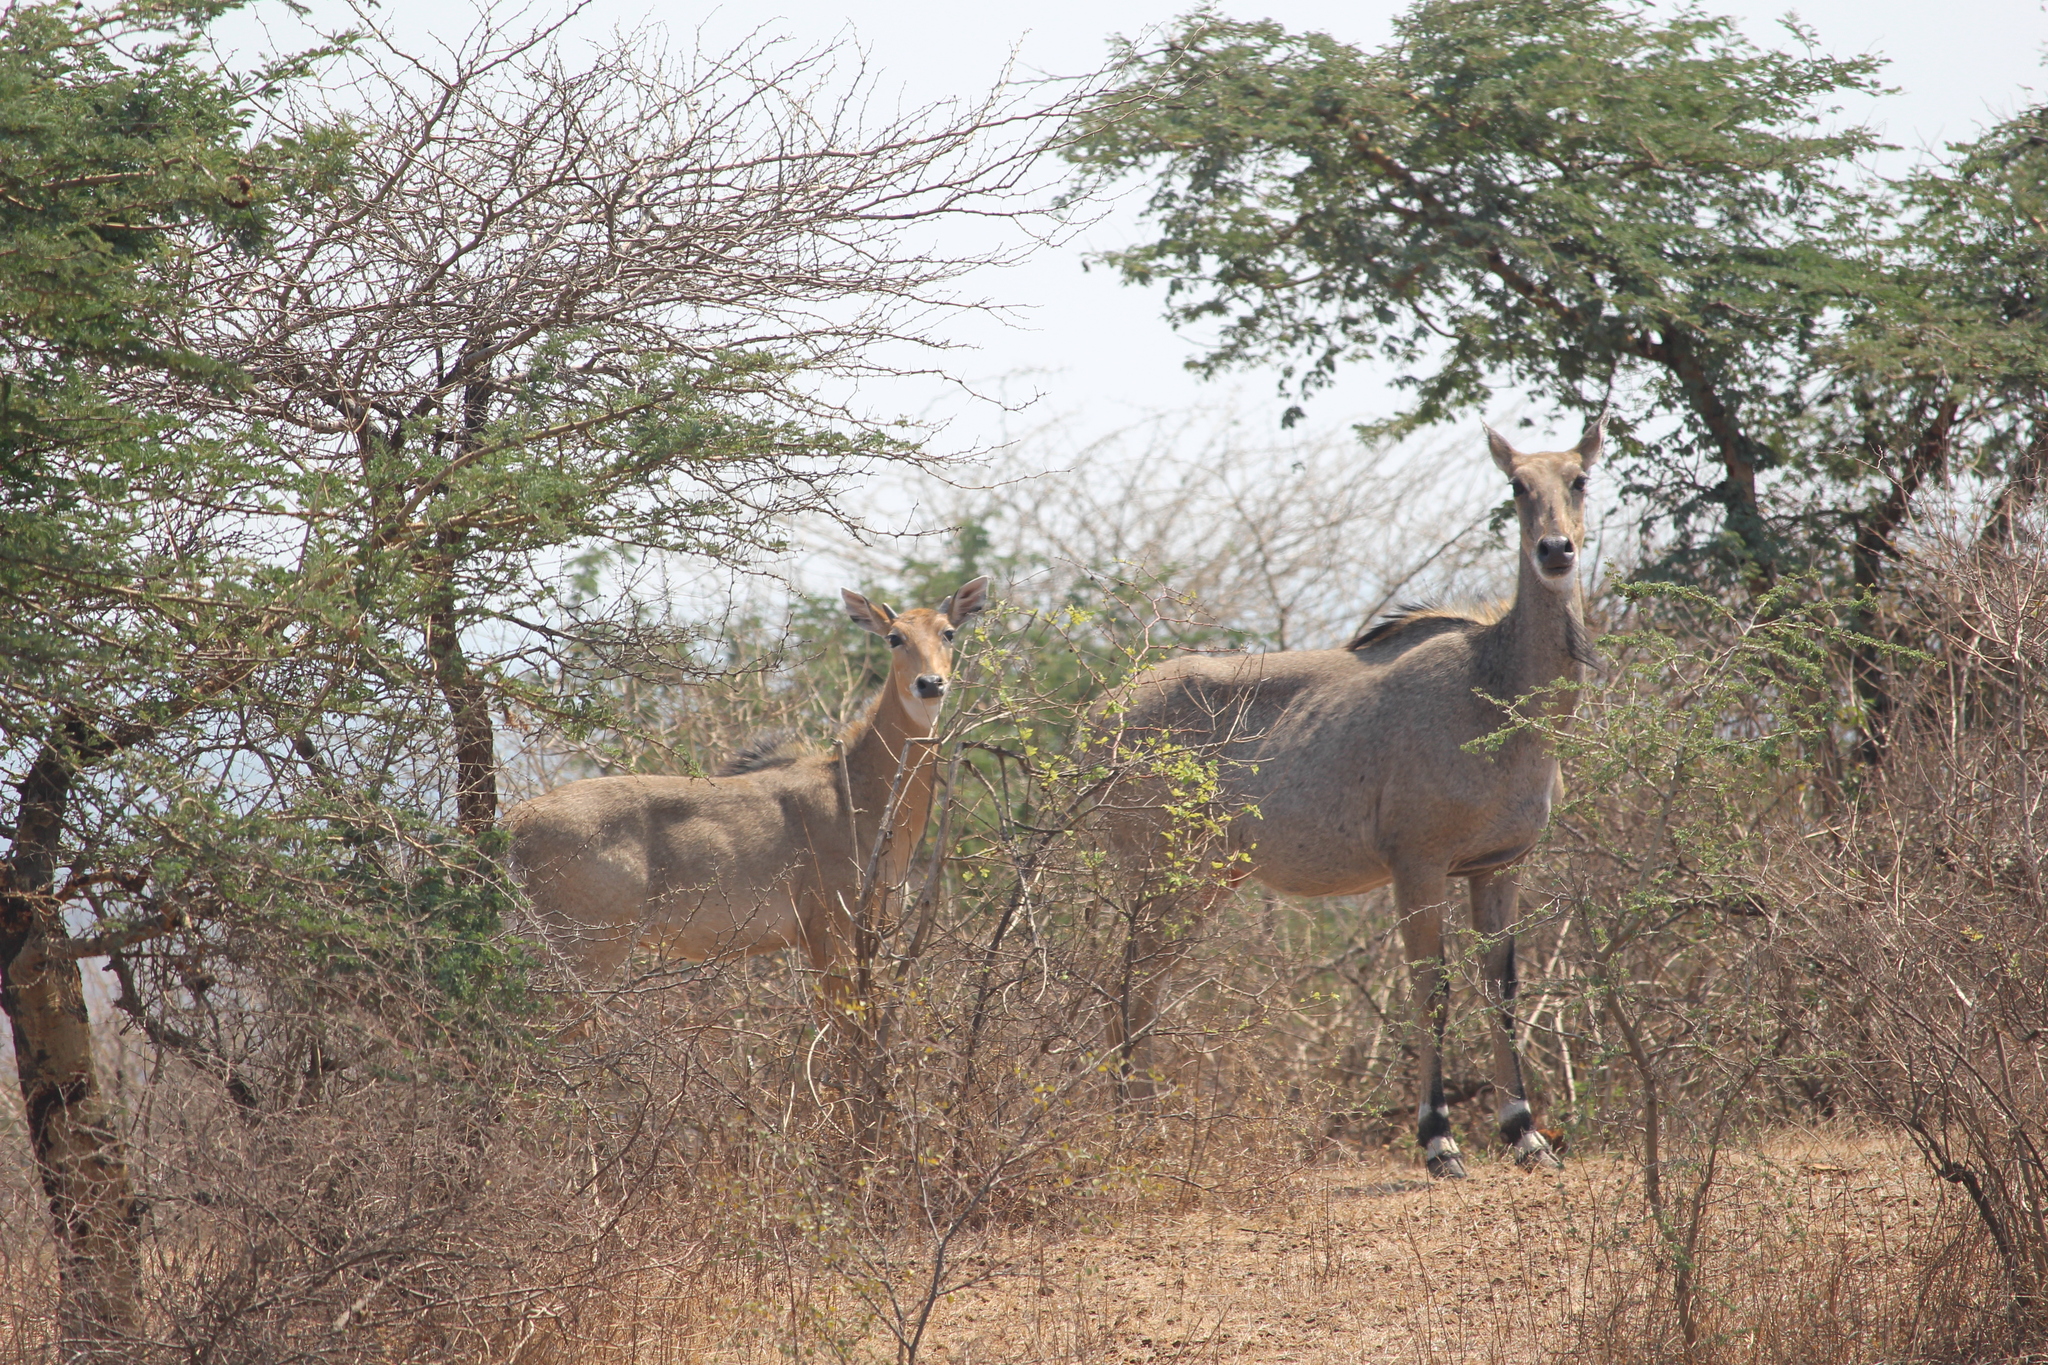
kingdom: Animalia
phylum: Chordata
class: Mammalia
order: Artiodactyla
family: Bovidae
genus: Boselaphus
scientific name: Boselaphus tragocamelus
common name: Nilgai
